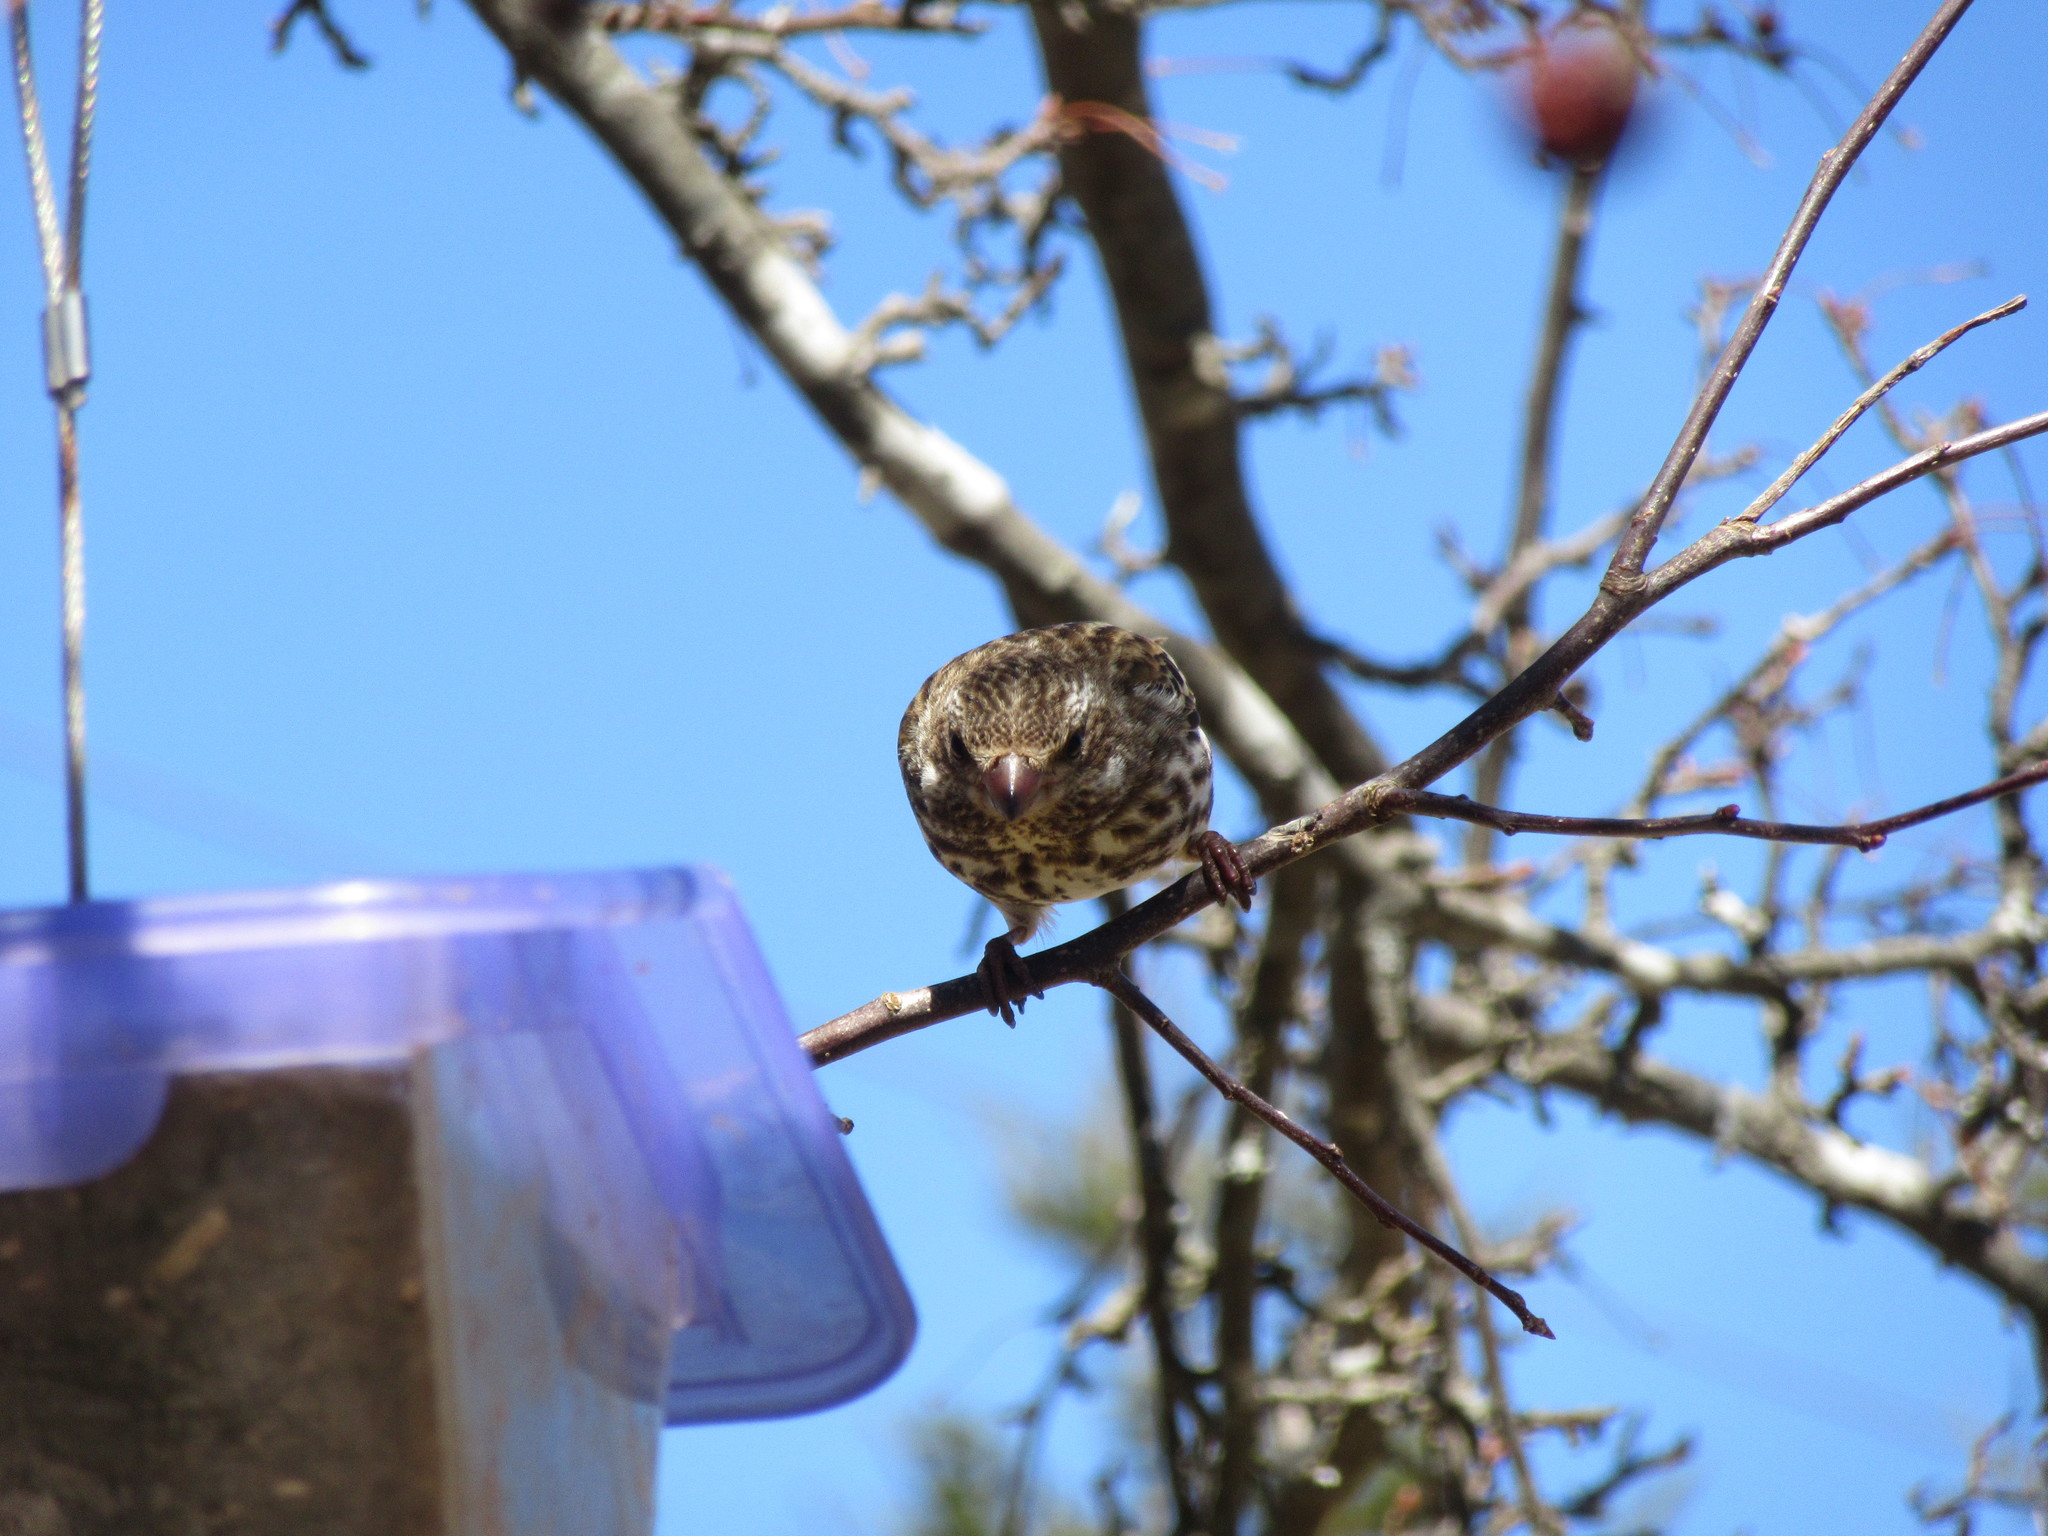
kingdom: Animalia
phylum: Chordata
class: Aves
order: Passeriformes
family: Fringillidae
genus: Haemorhous
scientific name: Haemorhous purpureus
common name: Purple finch
